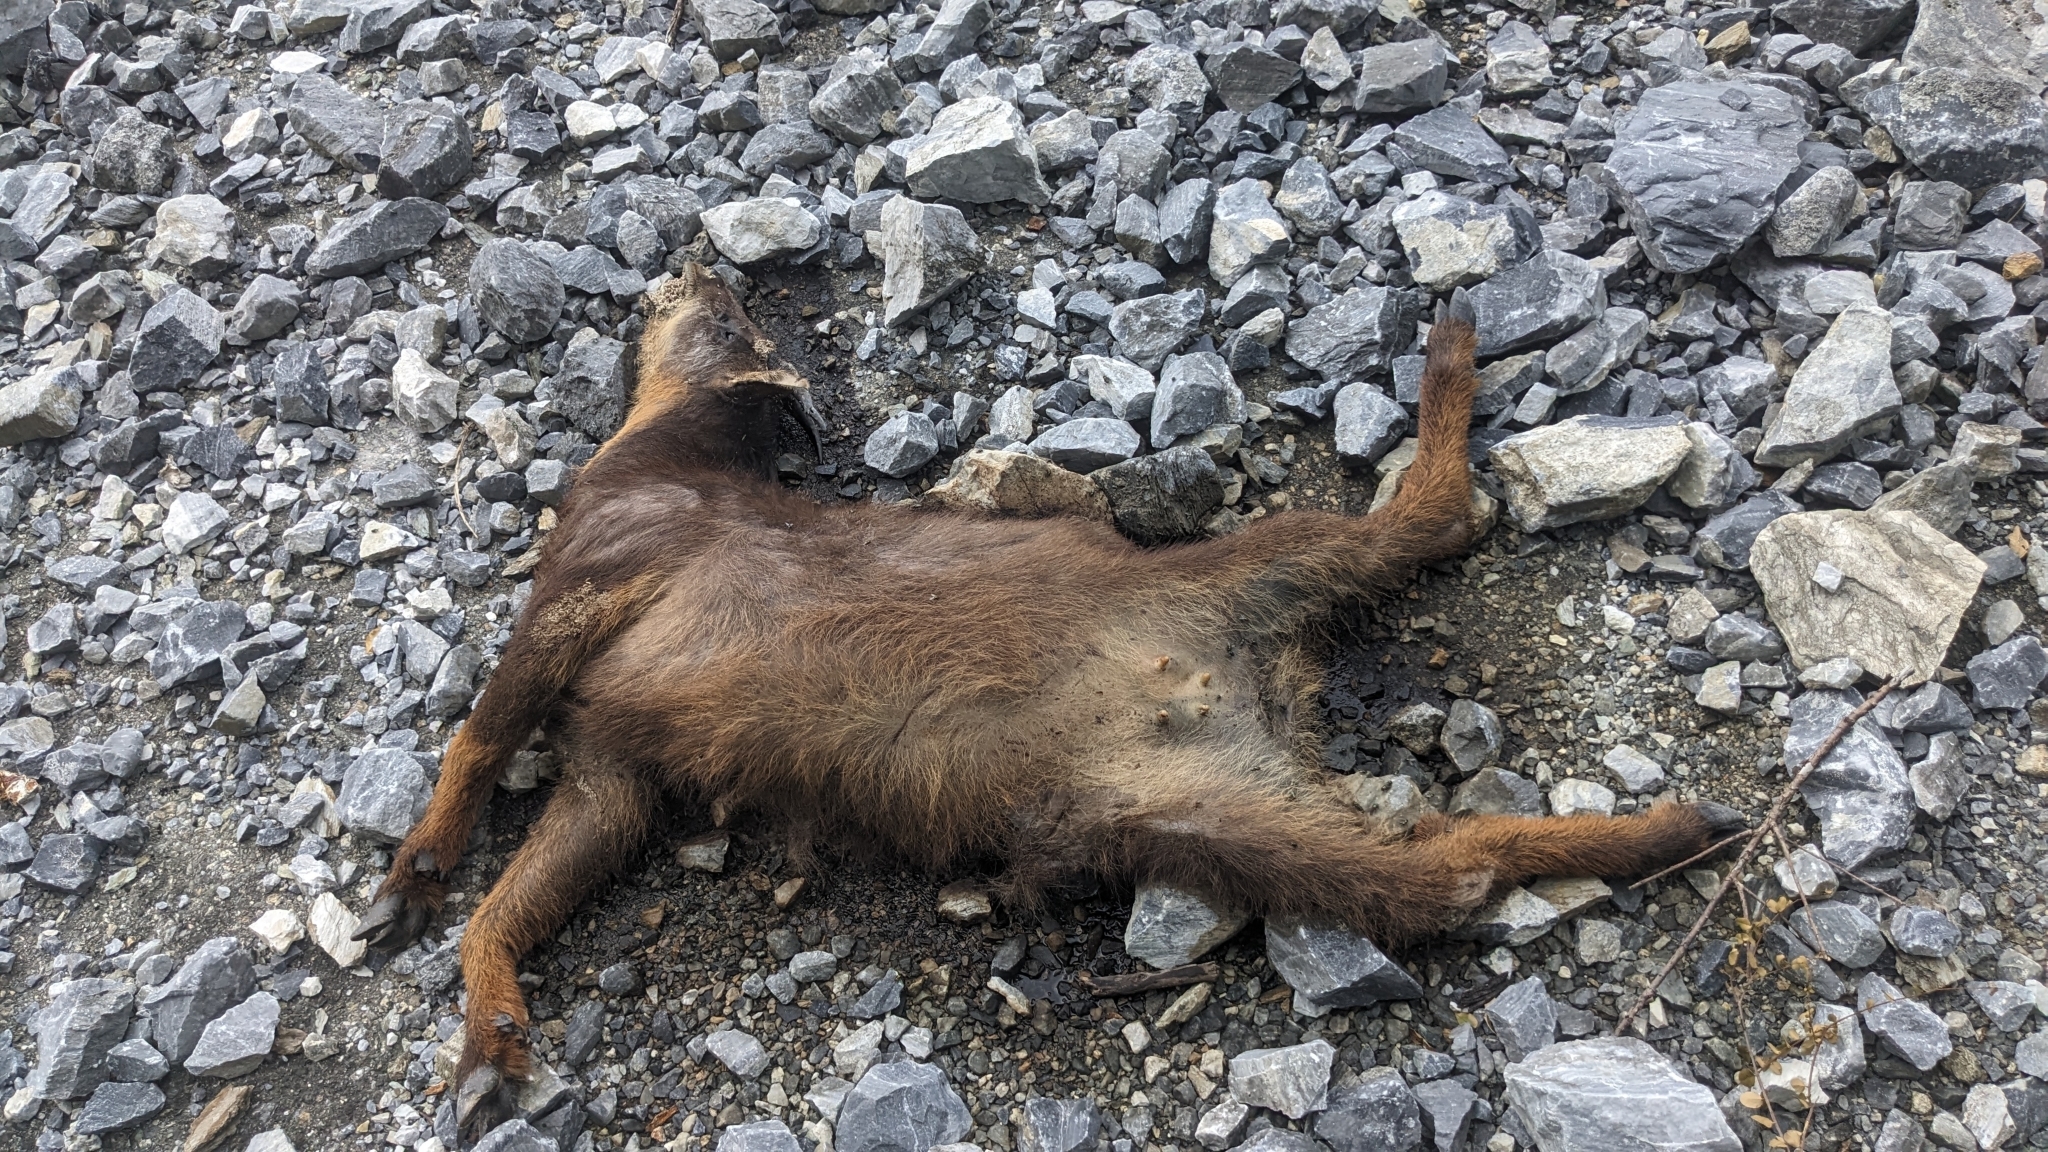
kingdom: Animalia
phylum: Chordata
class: Mammalia
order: Artiodactyla
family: Bovidae
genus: Capricornis
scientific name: Capricornis swinhoei
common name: Formosan serow
